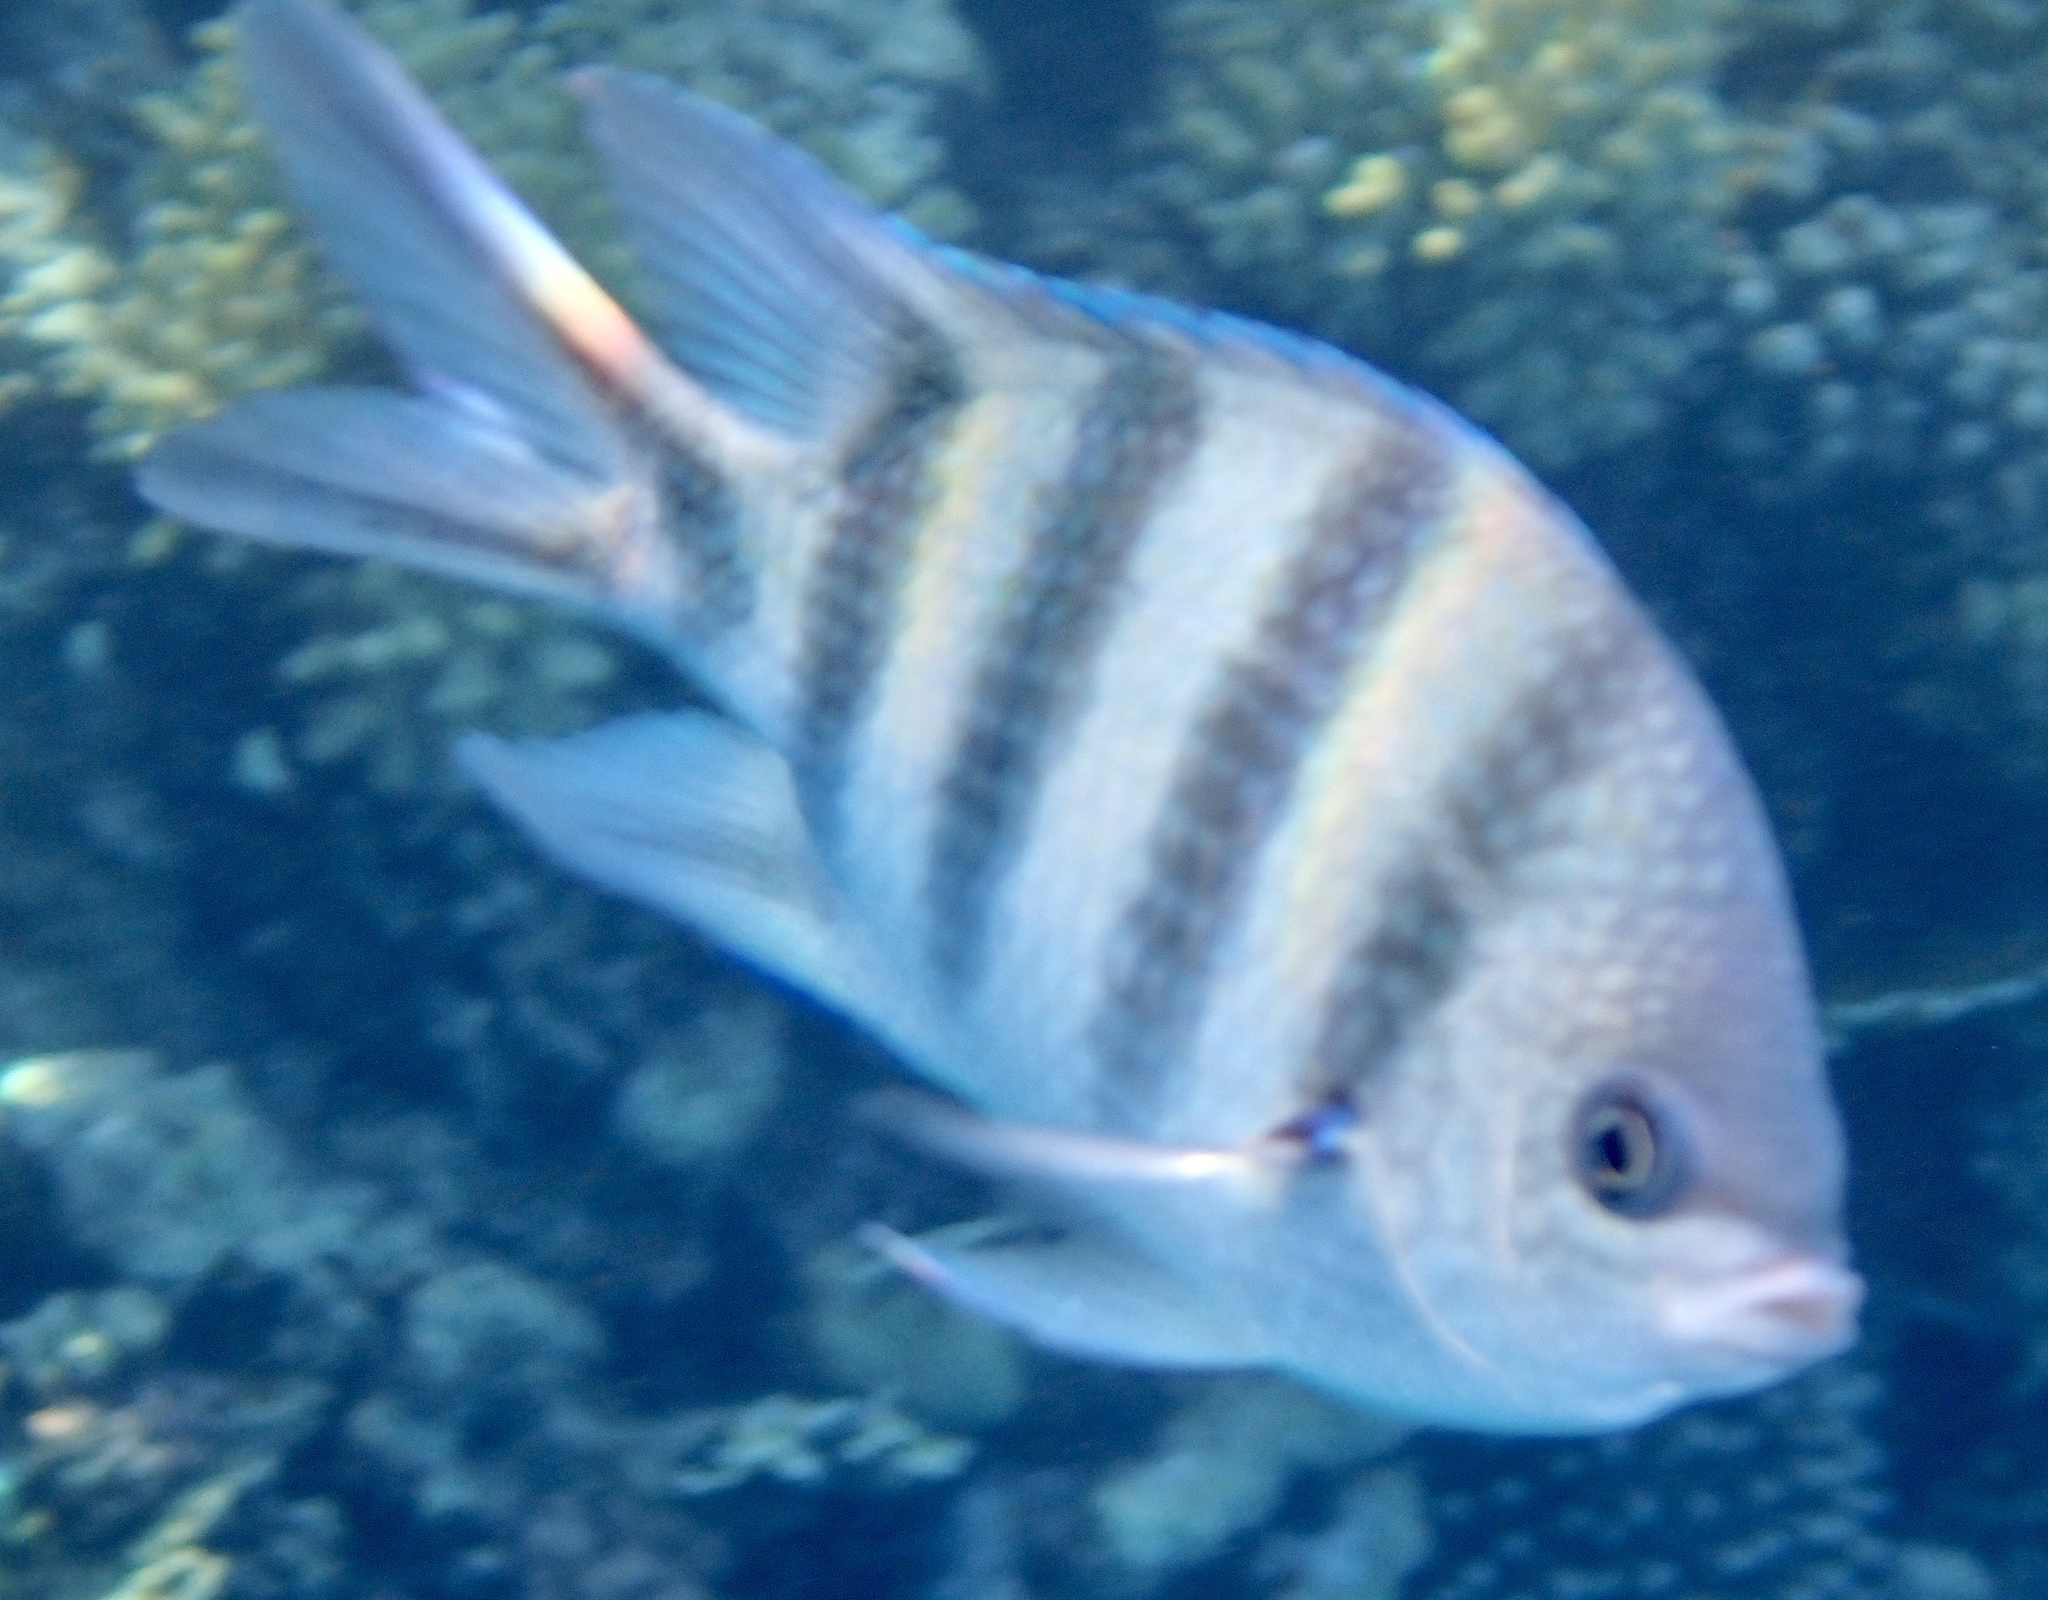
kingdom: Animalia
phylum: Chordata
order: Perciformes
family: Pomacentridae
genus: Abudefduf
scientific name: Abudefduf sexfasciatus
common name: Scissortail sergeant
